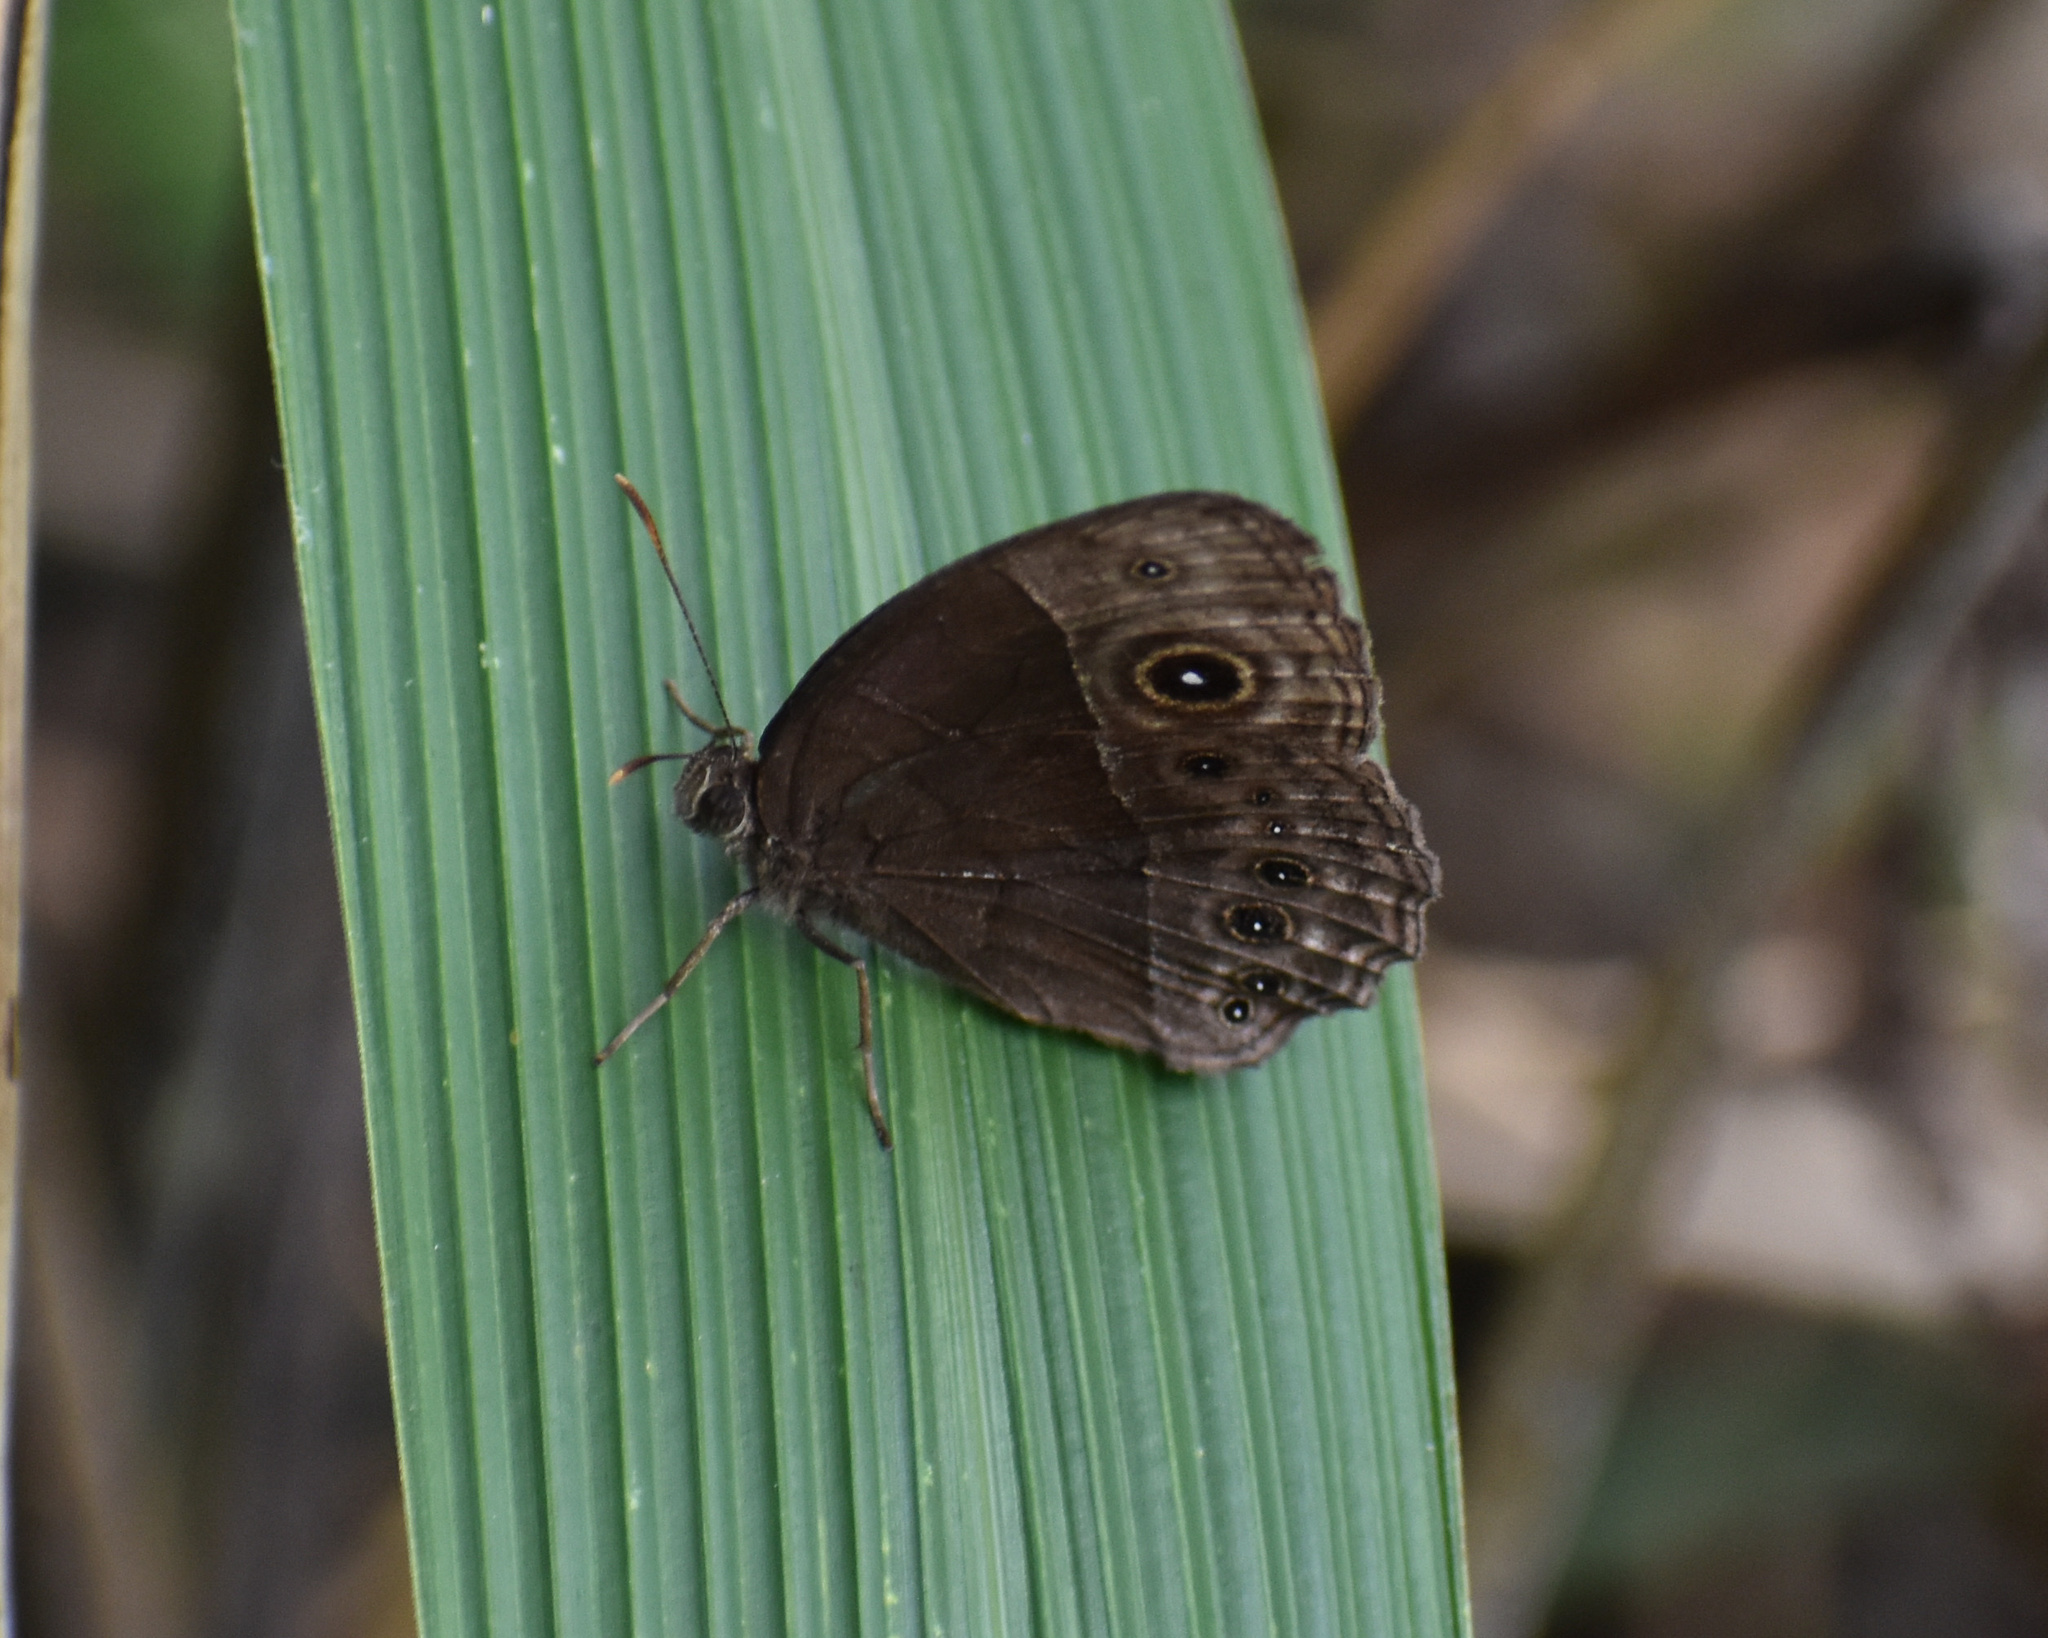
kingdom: Animalia
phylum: Arthropoda
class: Insecta
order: Lepidoptera
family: Nymphalidae
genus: Mycalesis
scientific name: Mycalesis rhacotis
